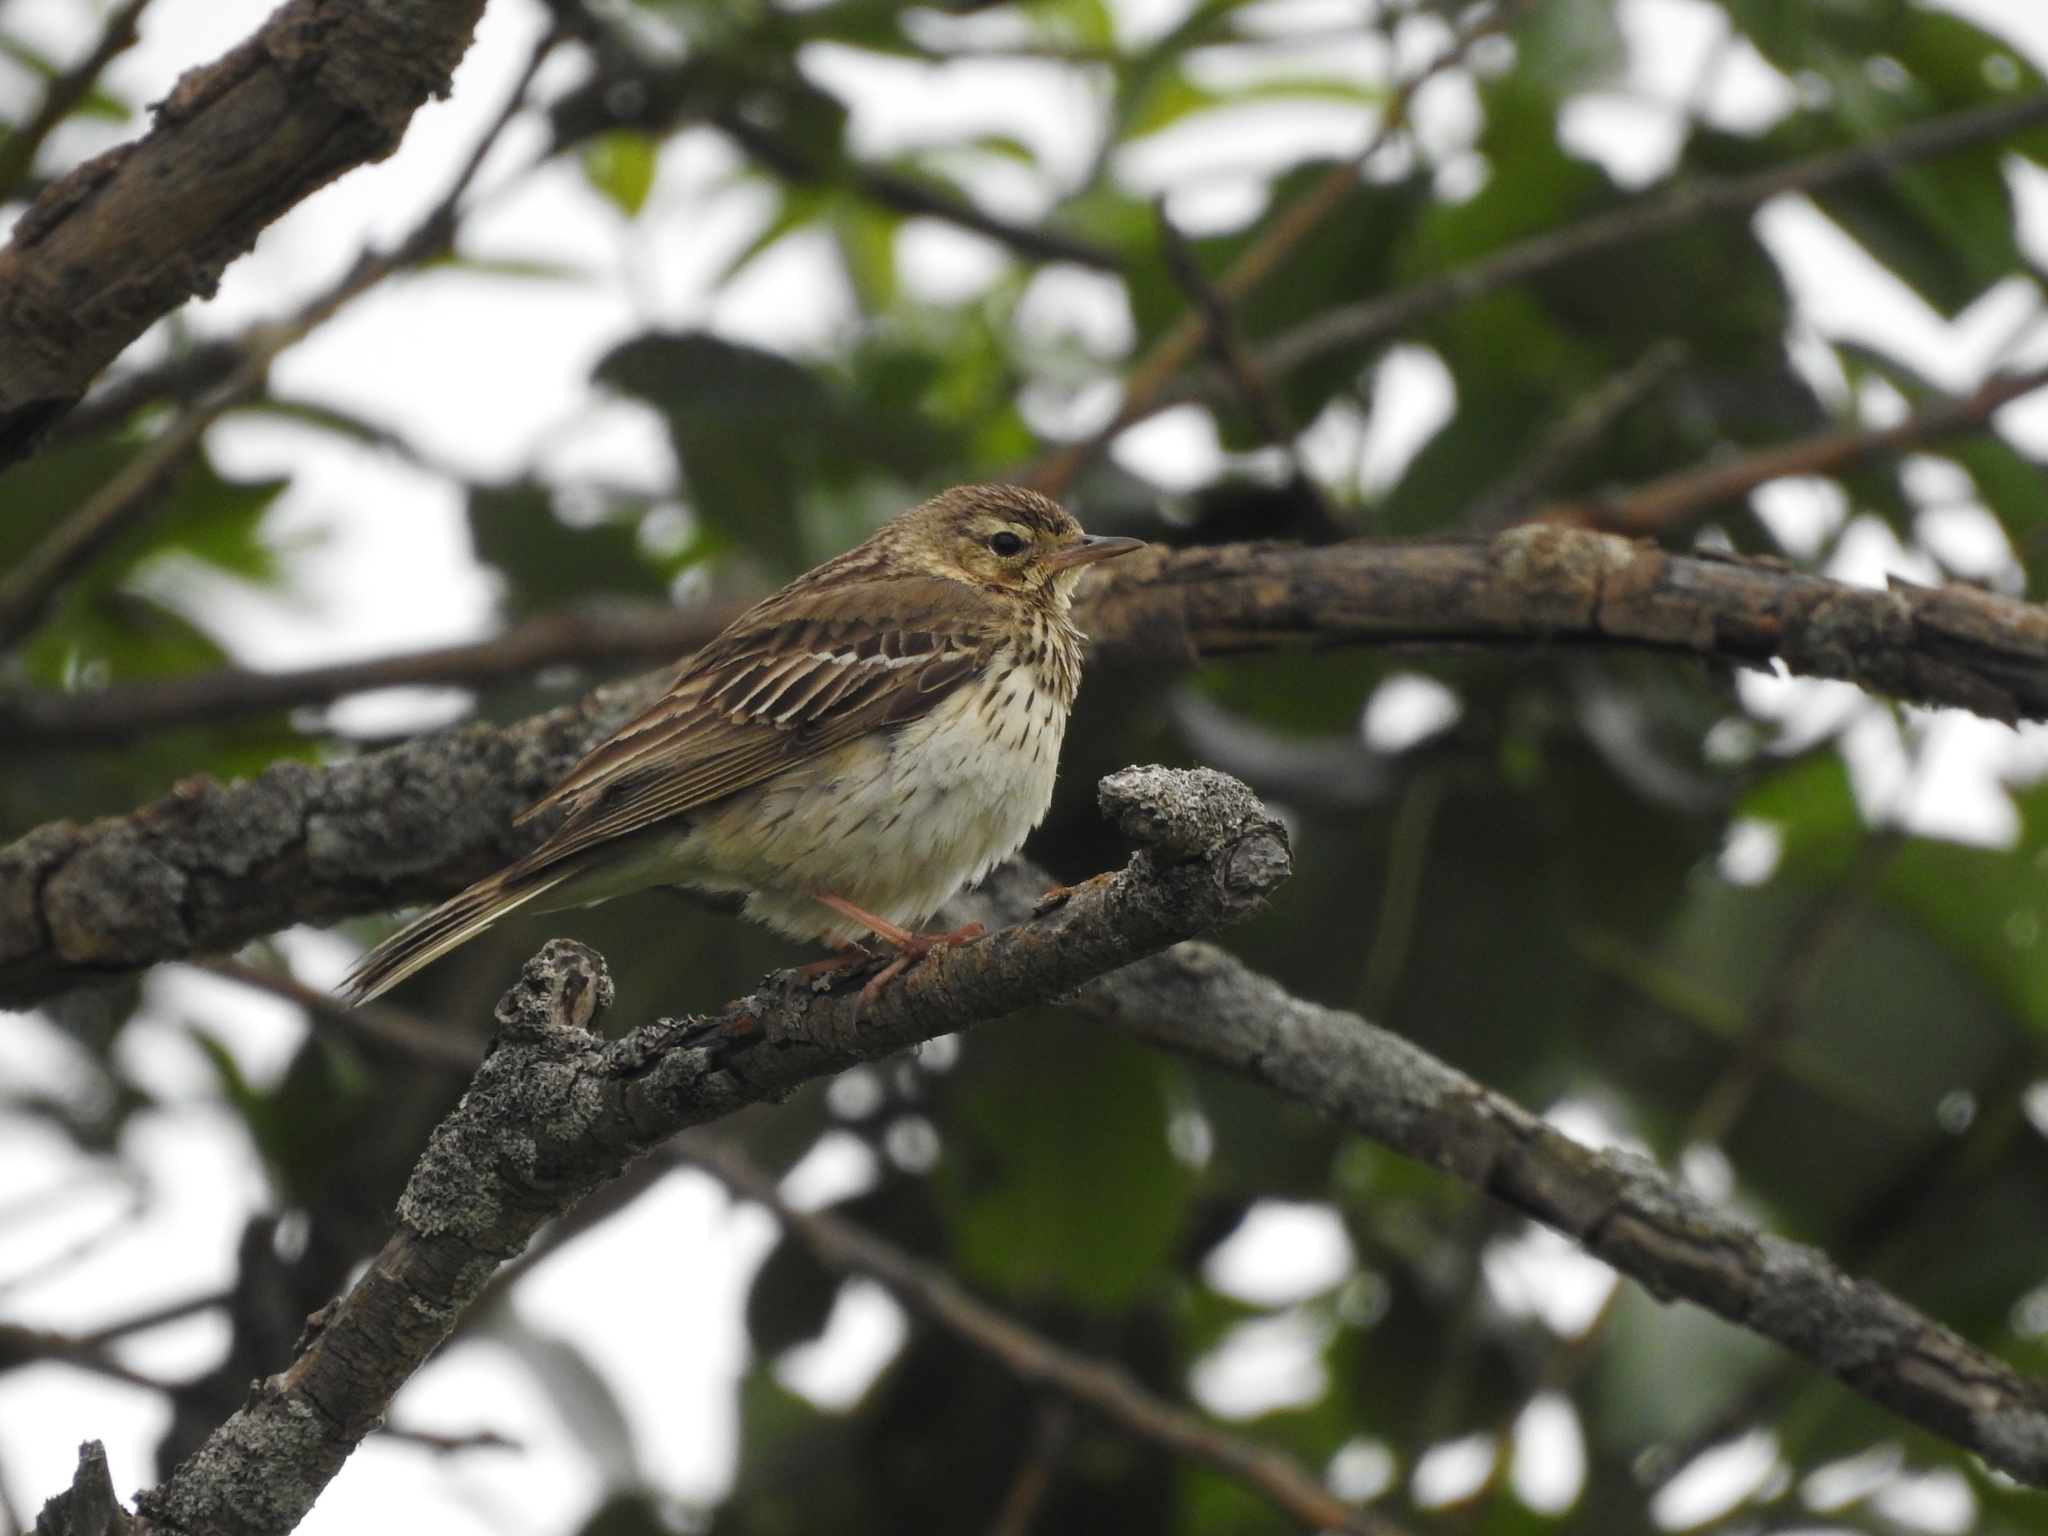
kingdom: Animalia
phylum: Chordata
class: Aves
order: Passeriformes
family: Motacillidae
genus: Anthus
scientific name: Anthus trivialis
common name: Tree pipit
